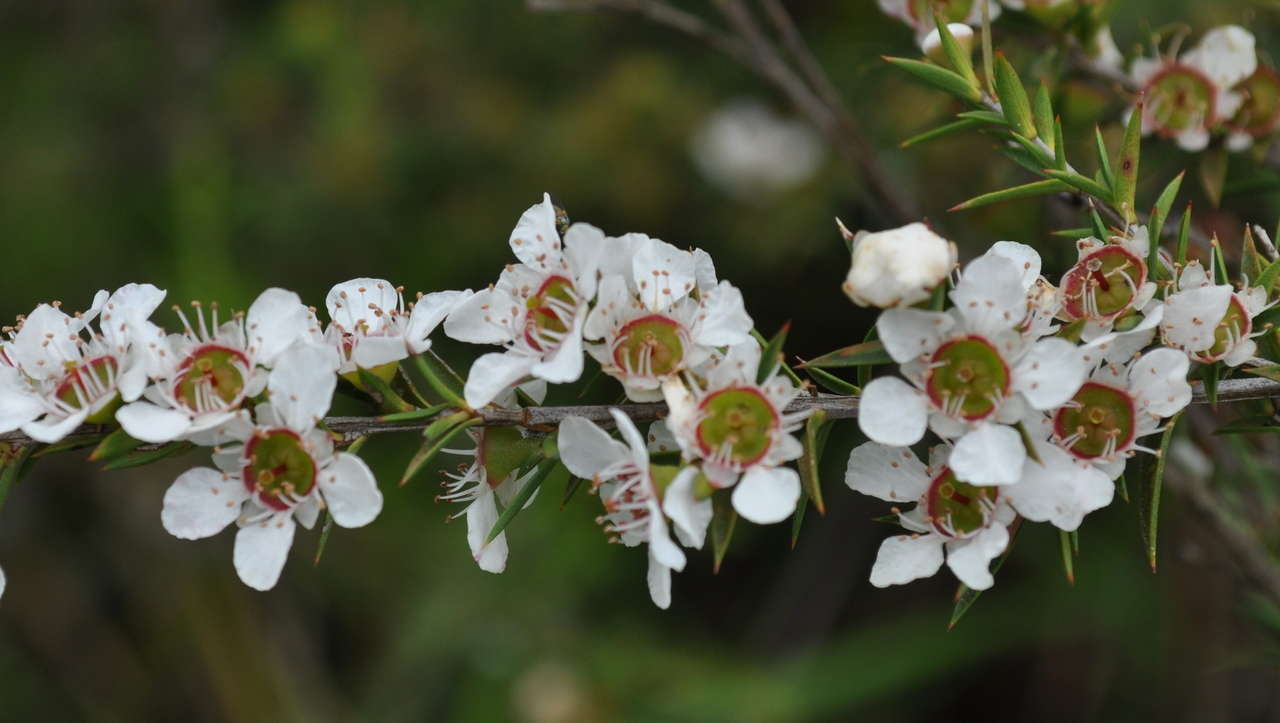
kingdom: Plantae
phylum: Tracheophyta
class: Magnoliopsida
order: Myrtales
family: Myrtaceae
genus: Leptospermum
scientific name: Leptospermum continentale
